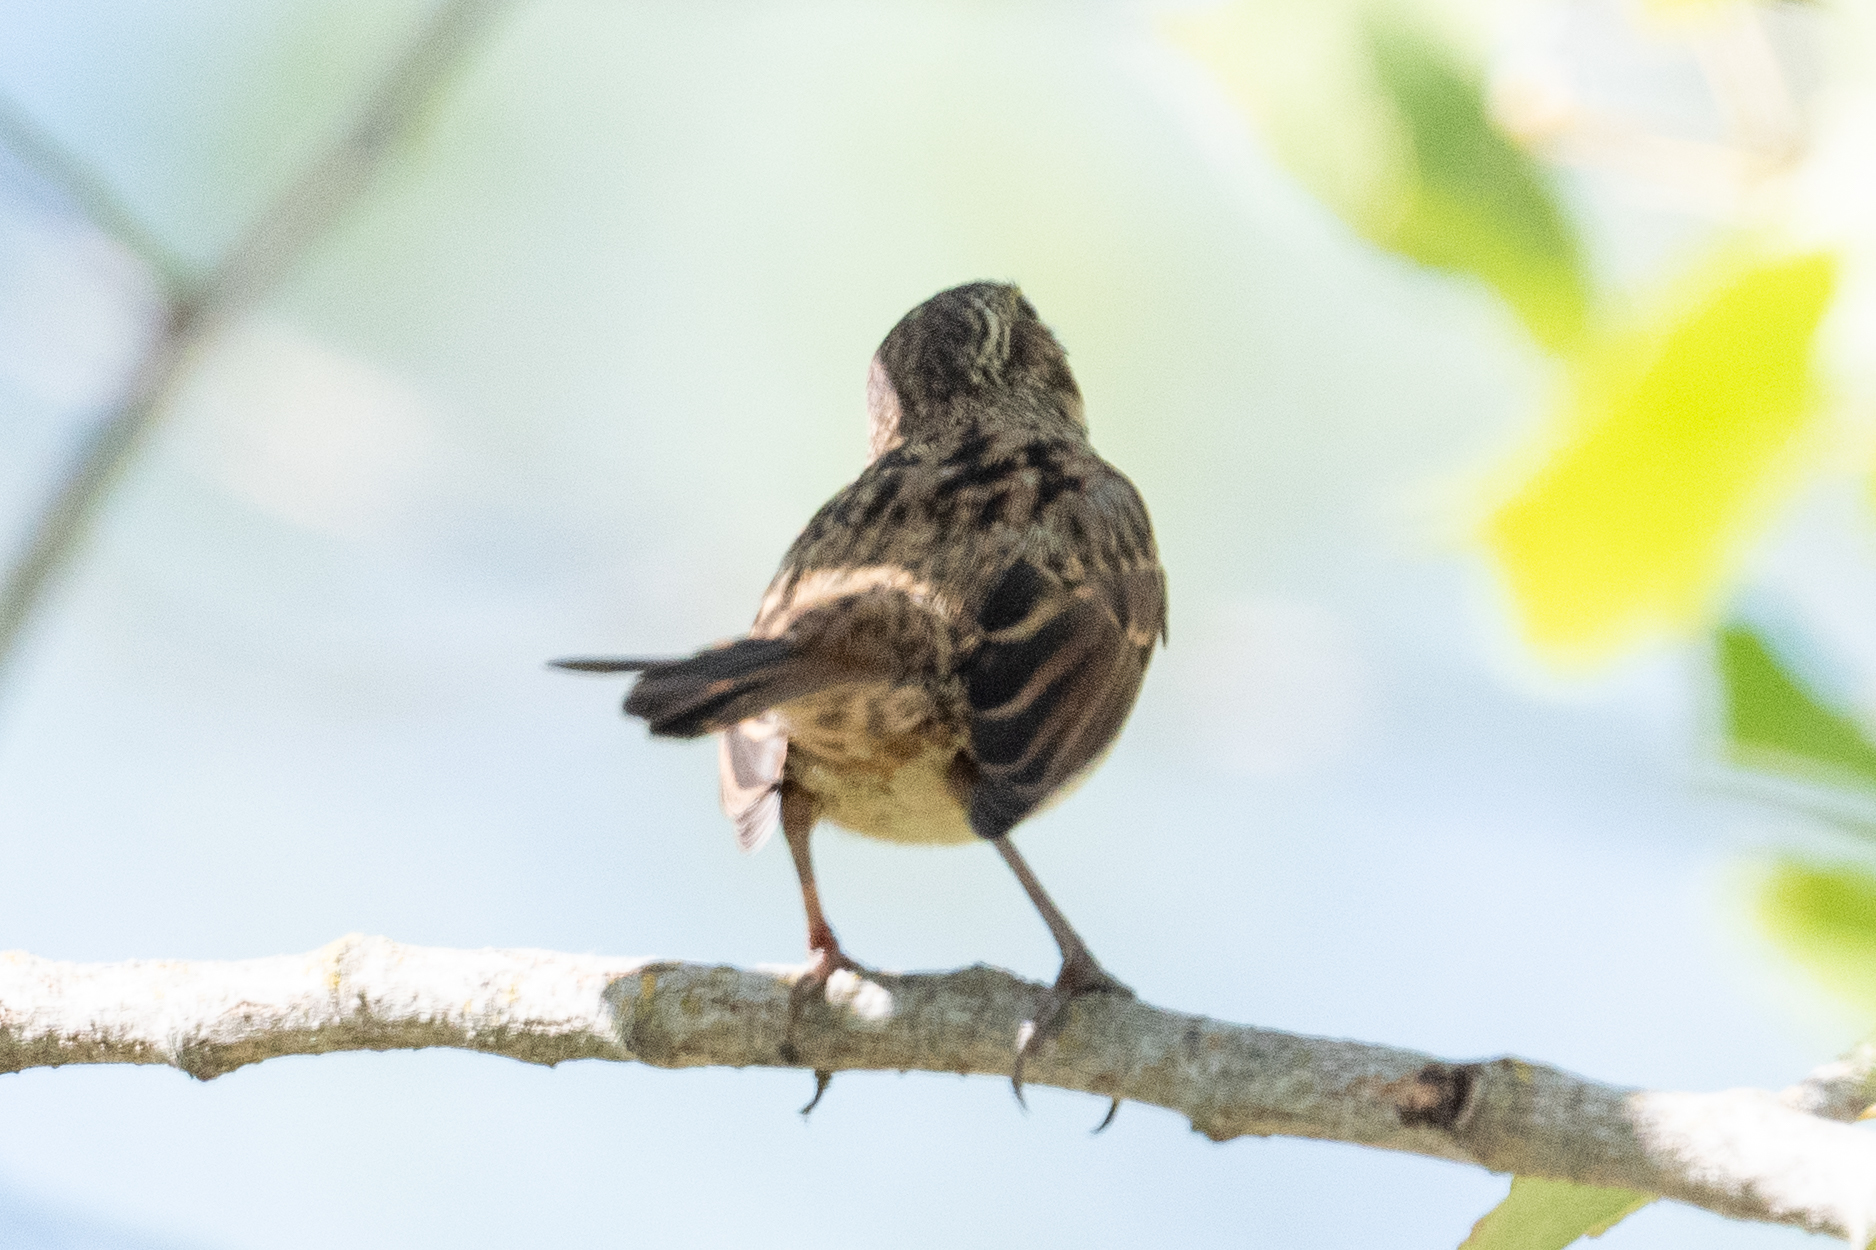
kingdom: Animalia
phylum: Chordata
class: Aves
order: Passeriformes
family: Passerellidae
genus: Melospiza
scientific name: Melospiza melodia
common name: Song sparrow
